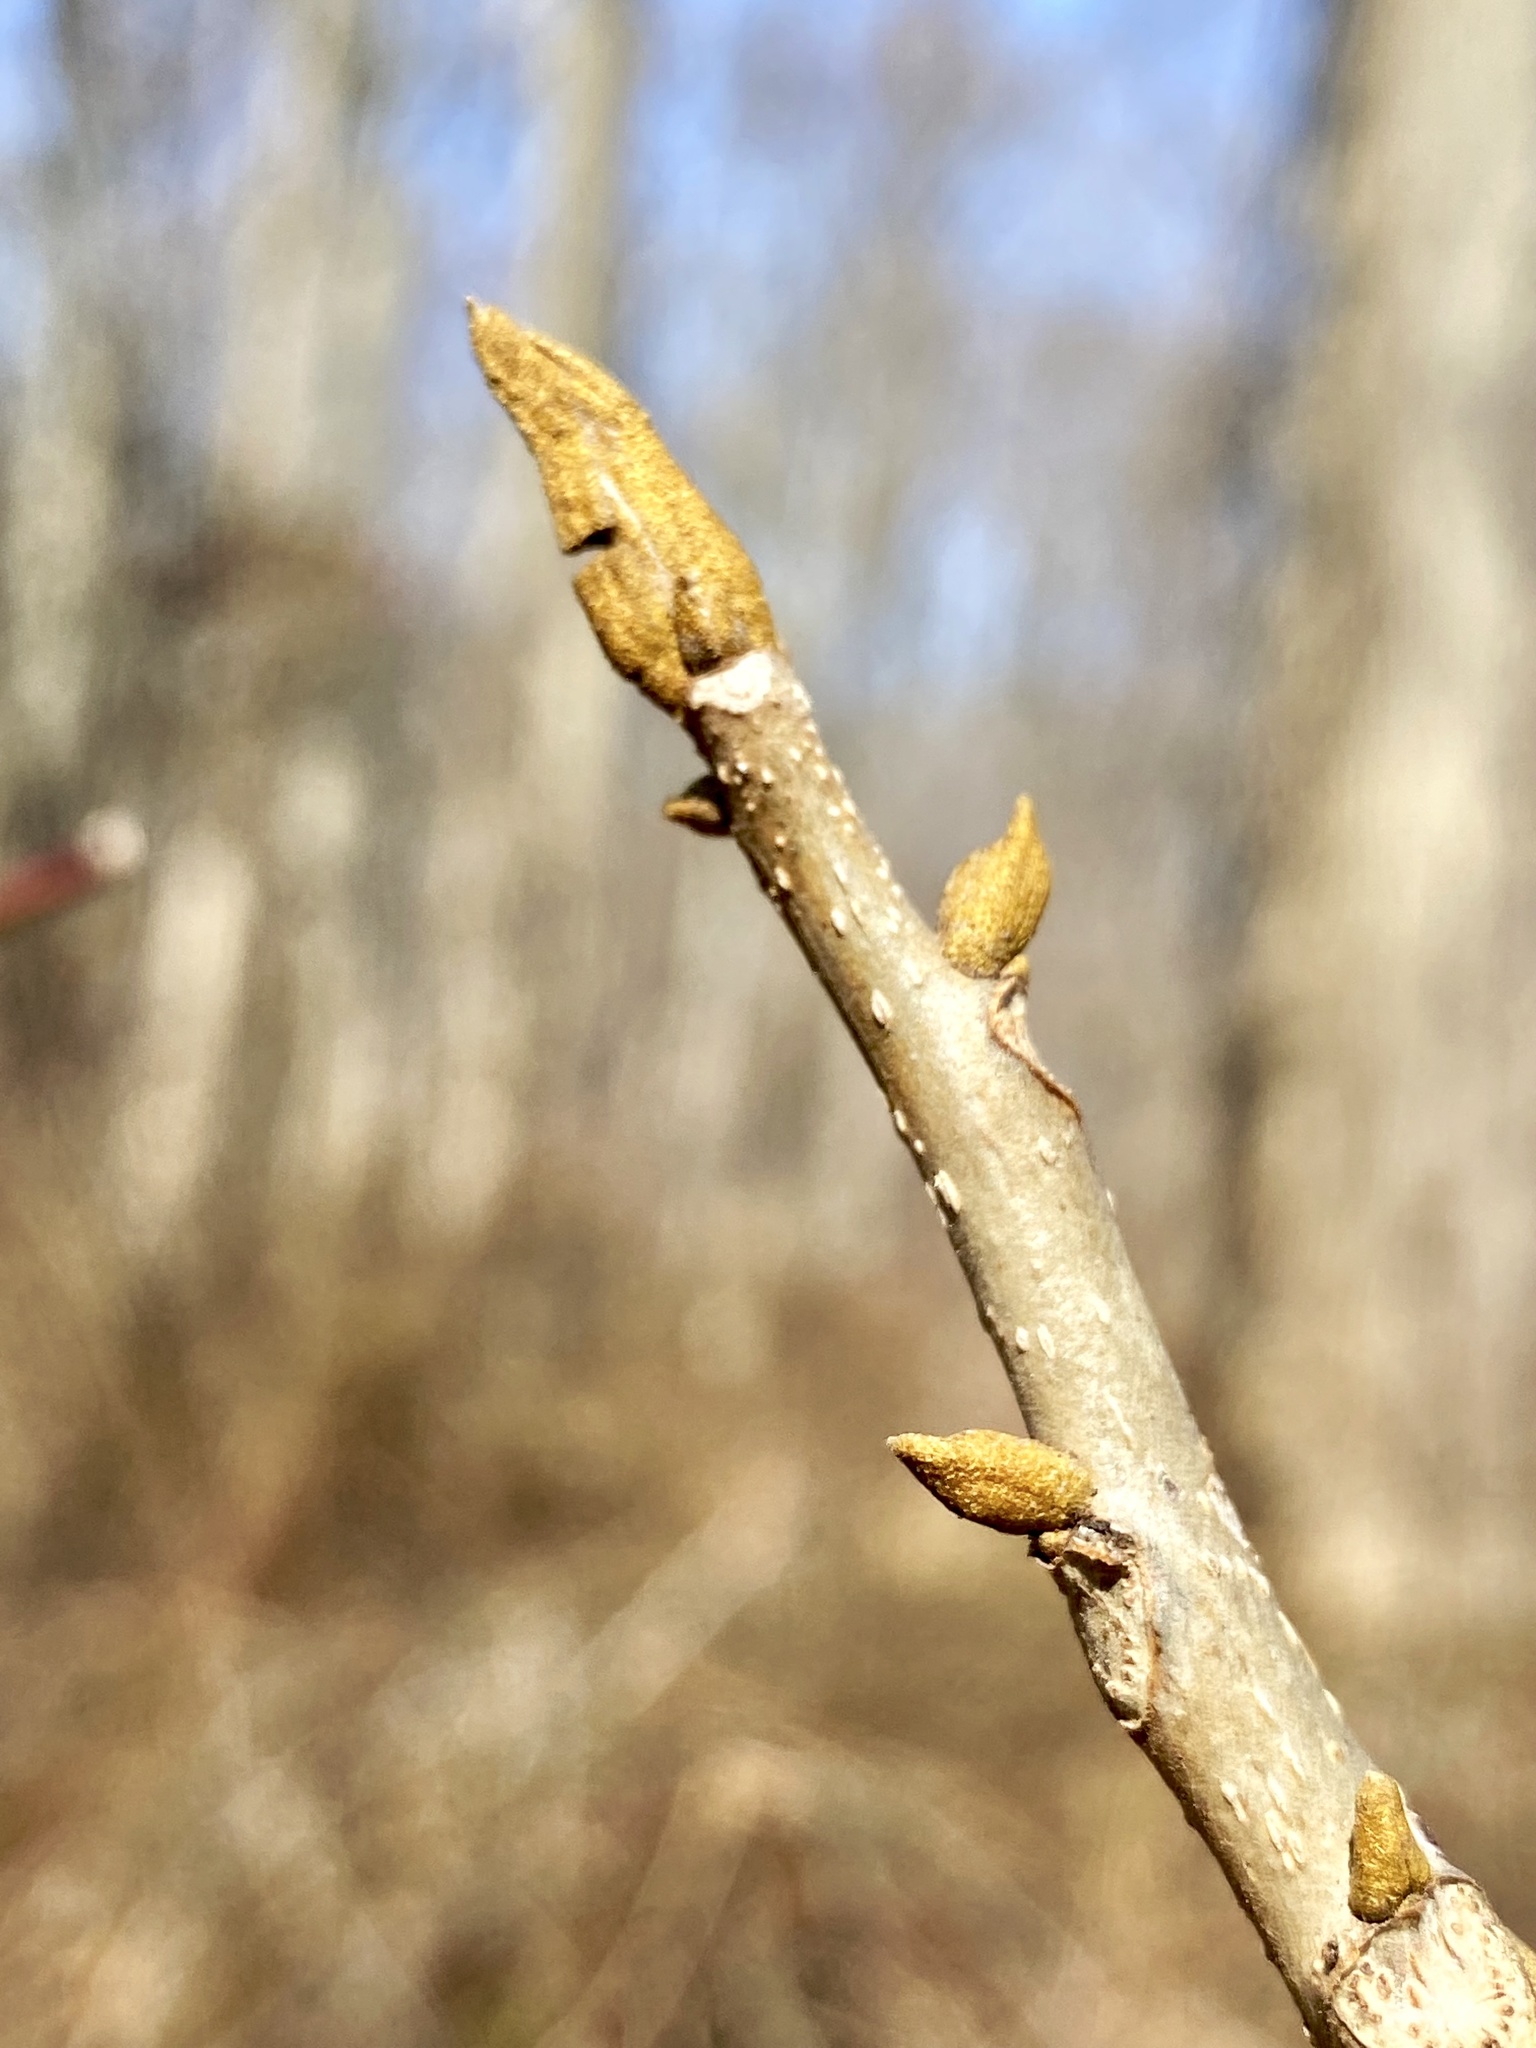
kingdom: Plantae
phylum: Tracheophyta
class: Magnoliopsida
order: Fagales
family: Juglandaceae
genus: Carya
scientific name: Carya cordiformis
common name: Bitternut hickory
